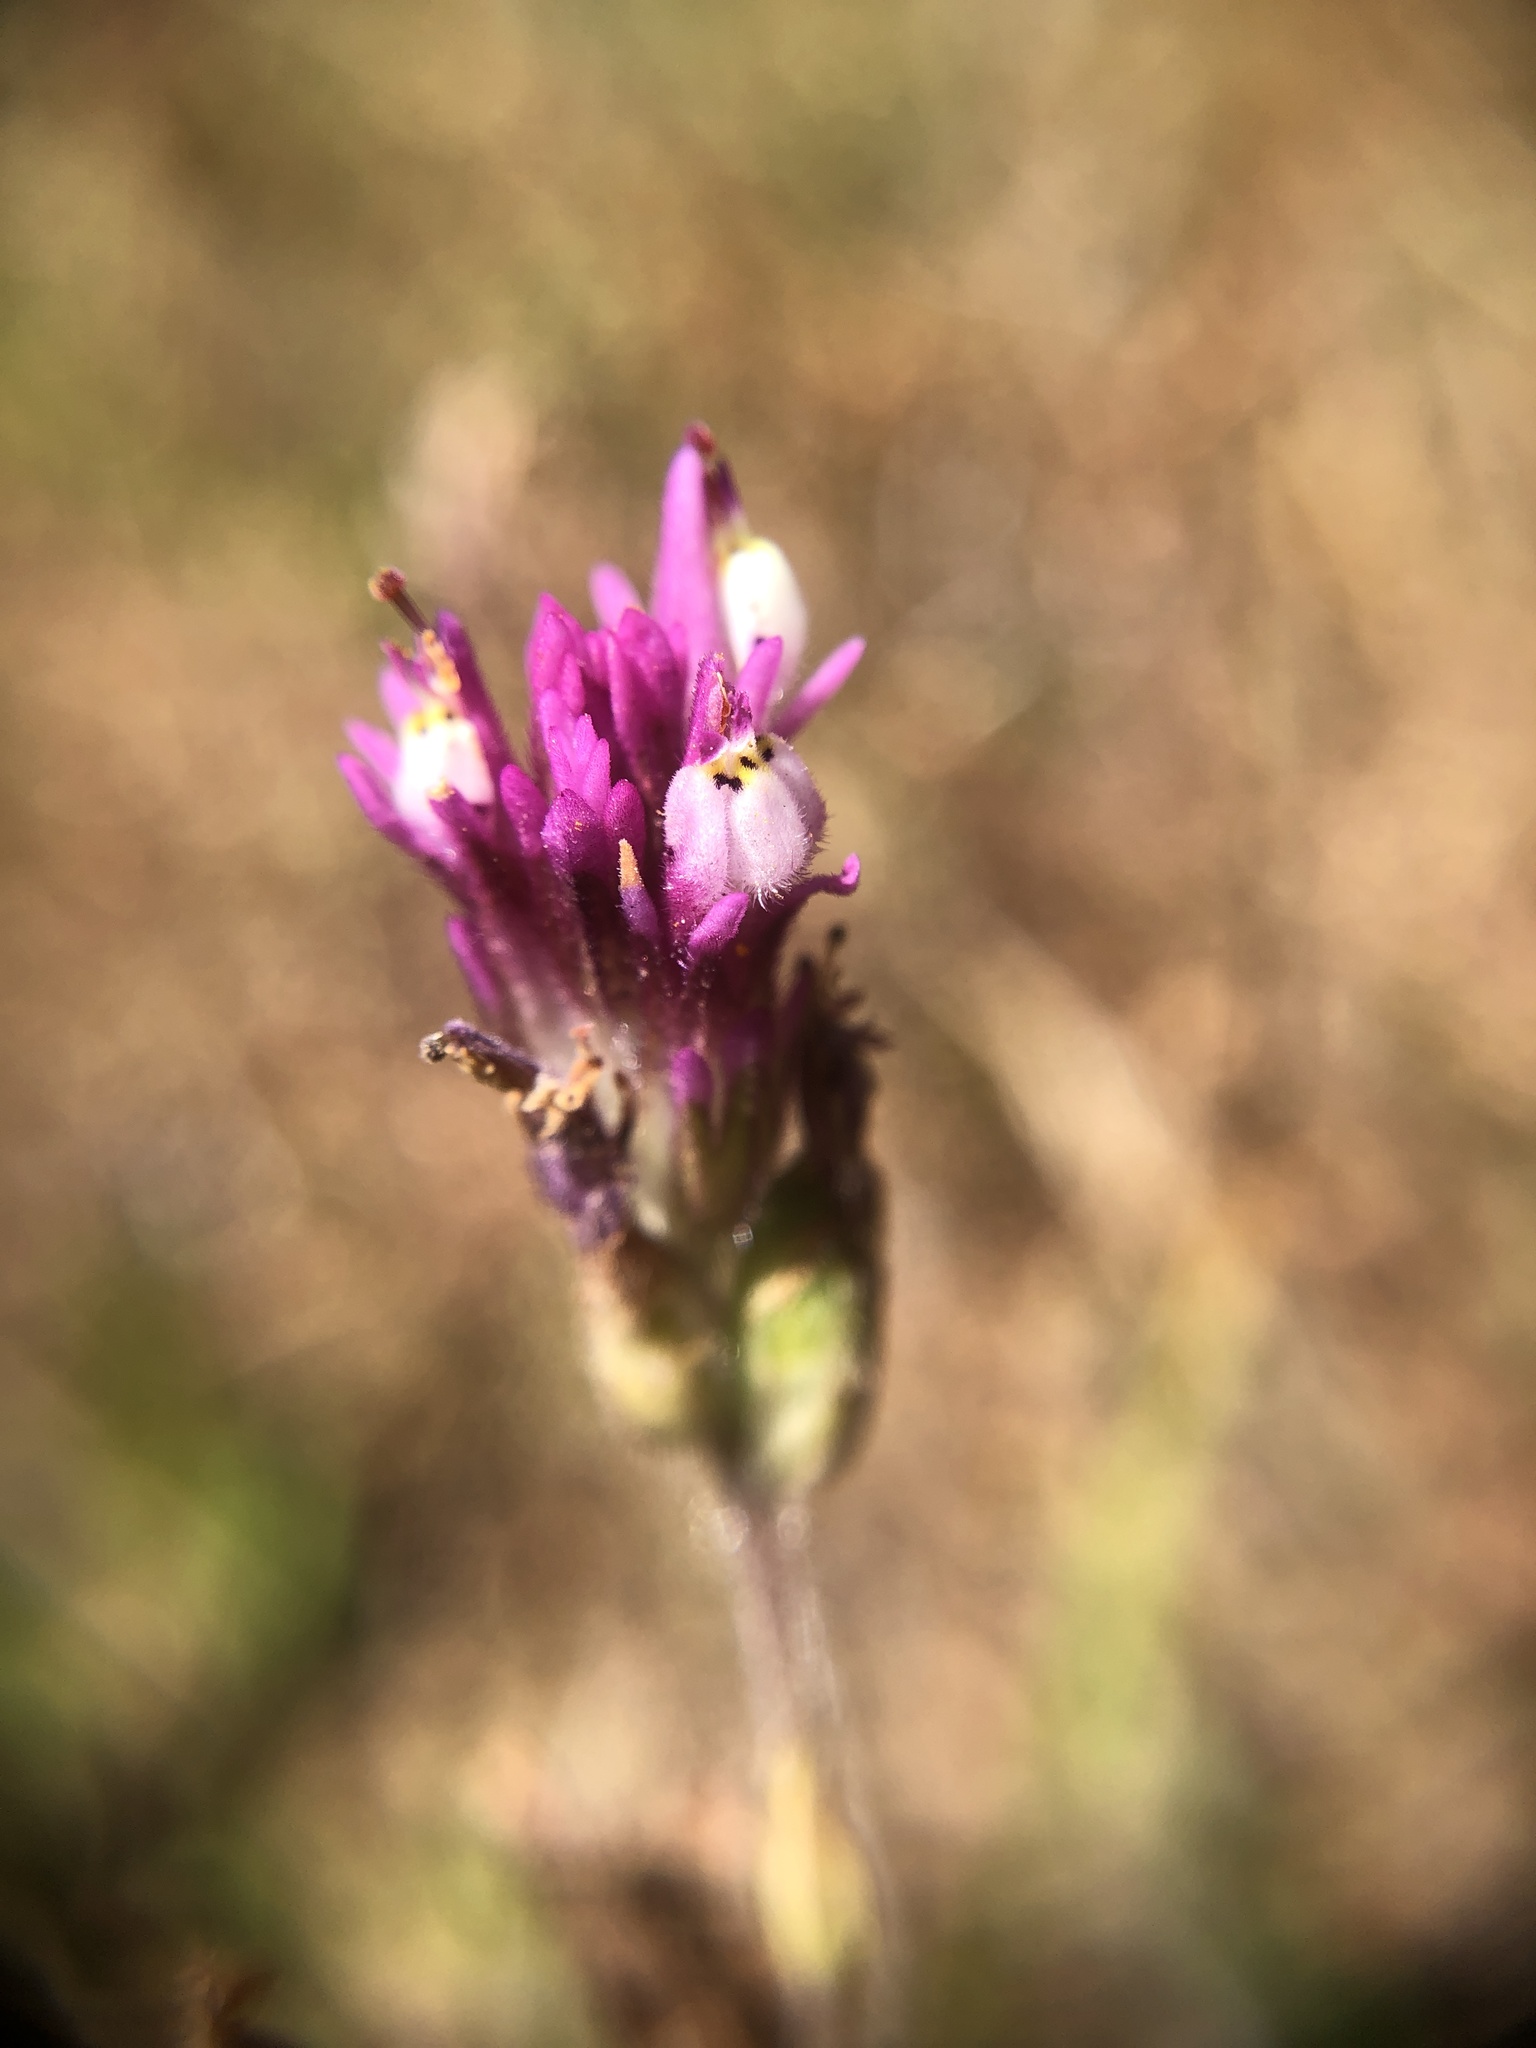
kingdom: Plantae
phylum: Tracheophyta
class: Magnoliopsida
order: Lamiales
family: Orobanchaceae
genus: Castilleja
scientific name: Castilleja densiflora
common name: Dense-flower indian paintbrush
